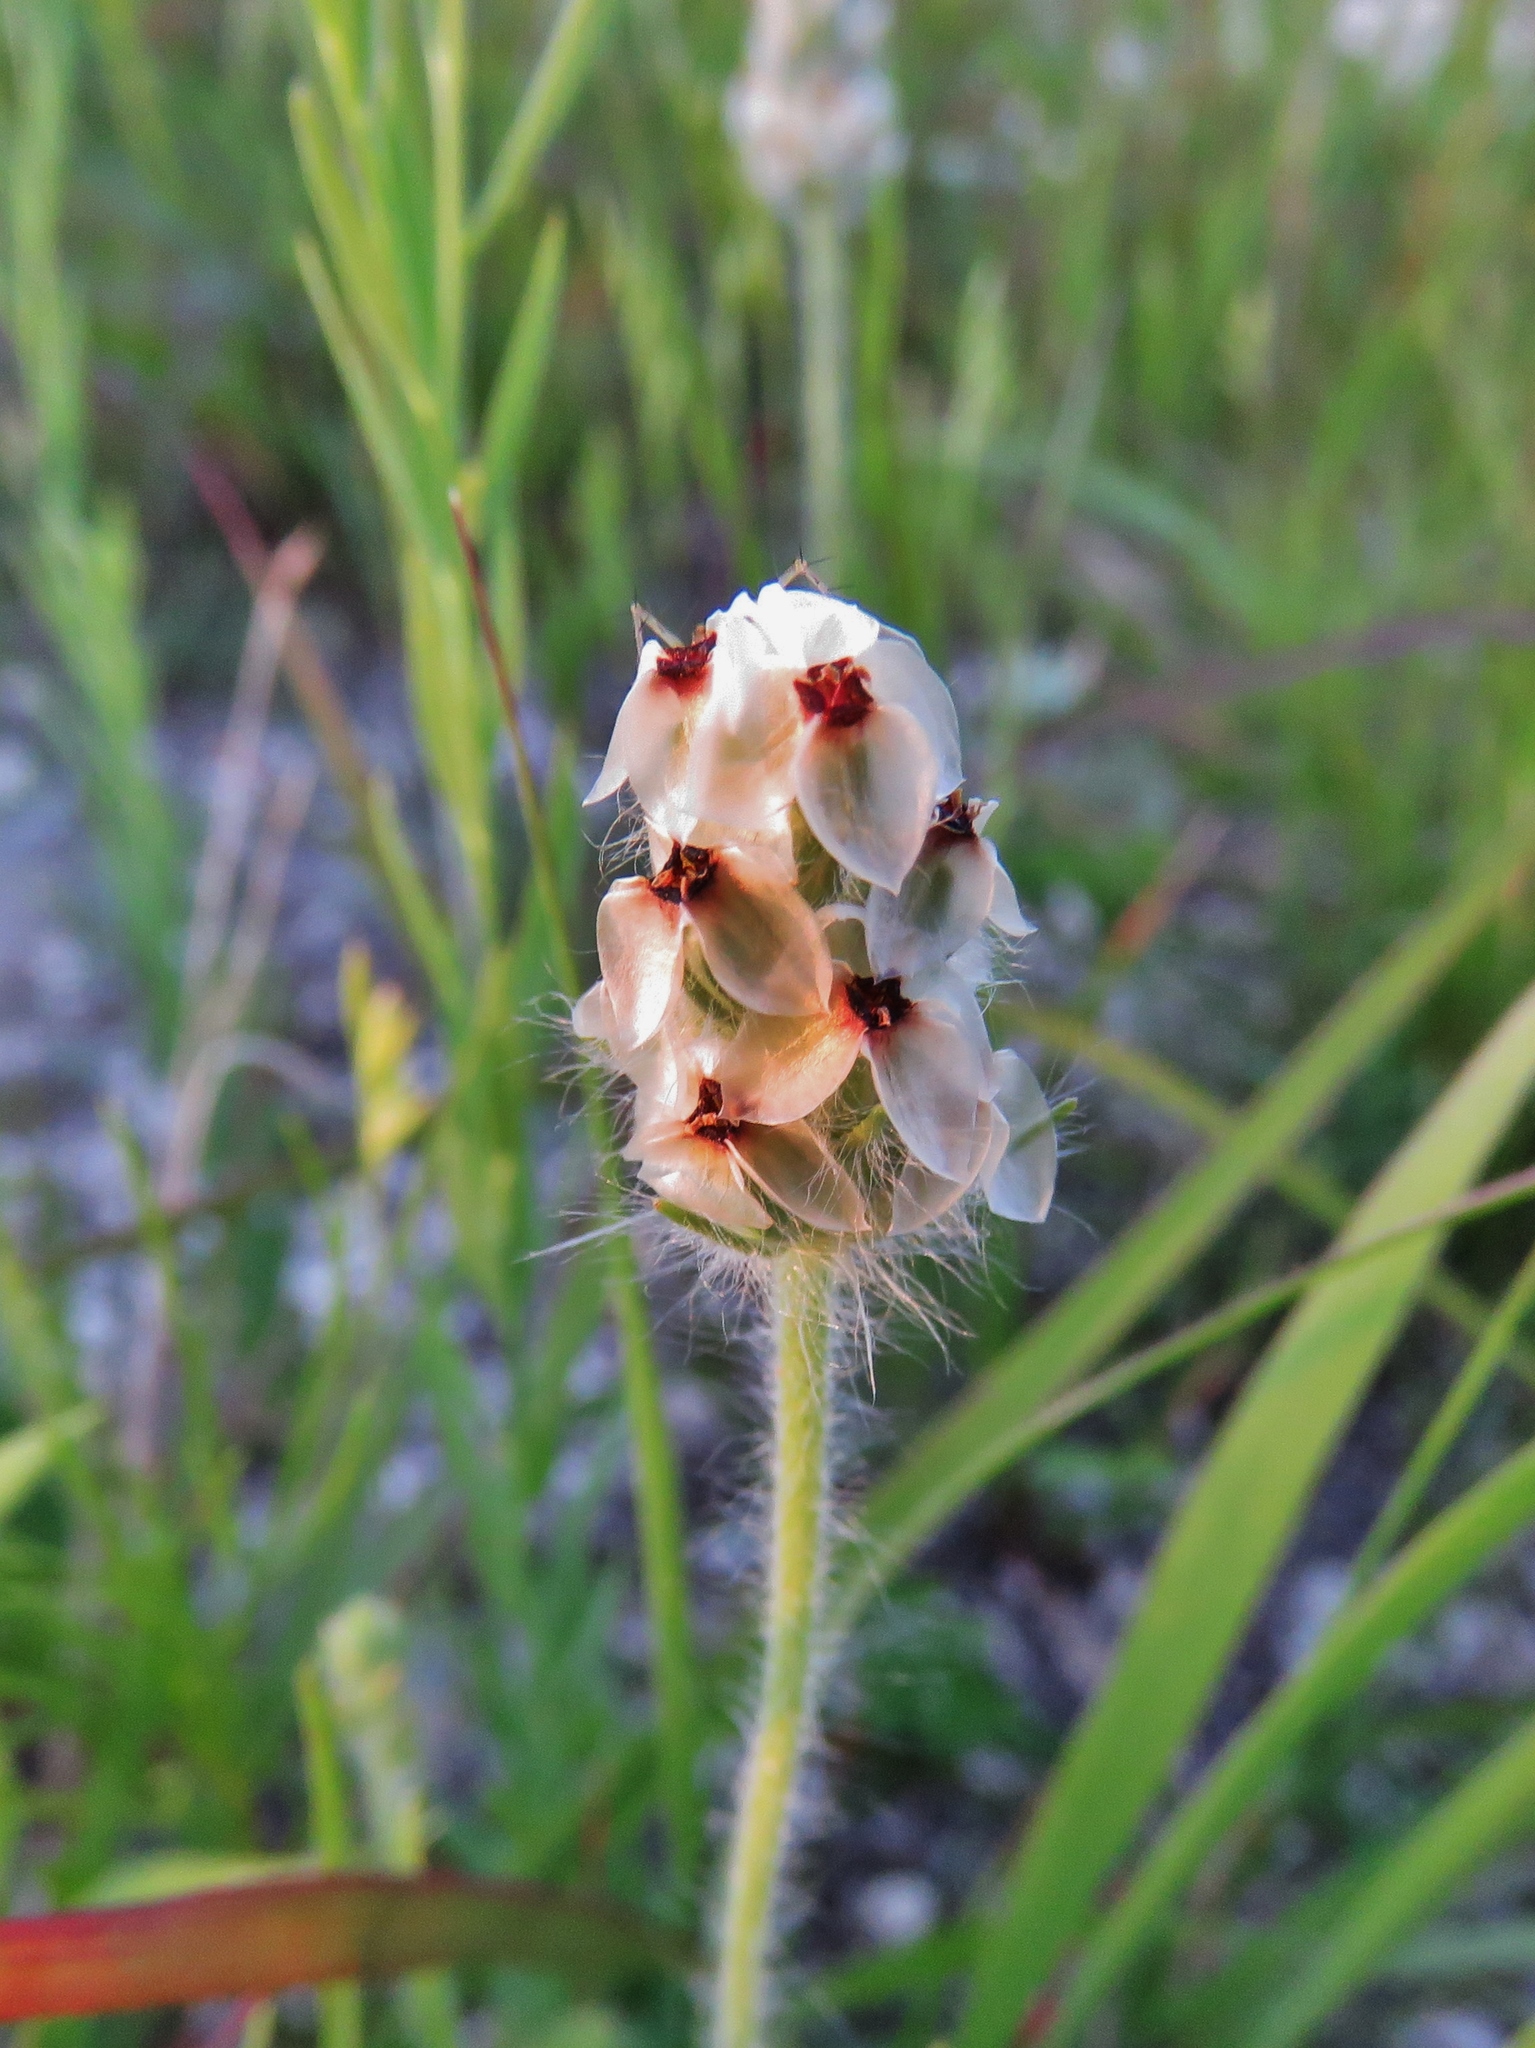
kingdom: Plantae
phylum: Tracheophyta
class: Magnoliopsida
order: Lamiales
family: Plantaginaceae
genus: Plantago
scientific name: Plantago helleri
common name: Heller's plantain
